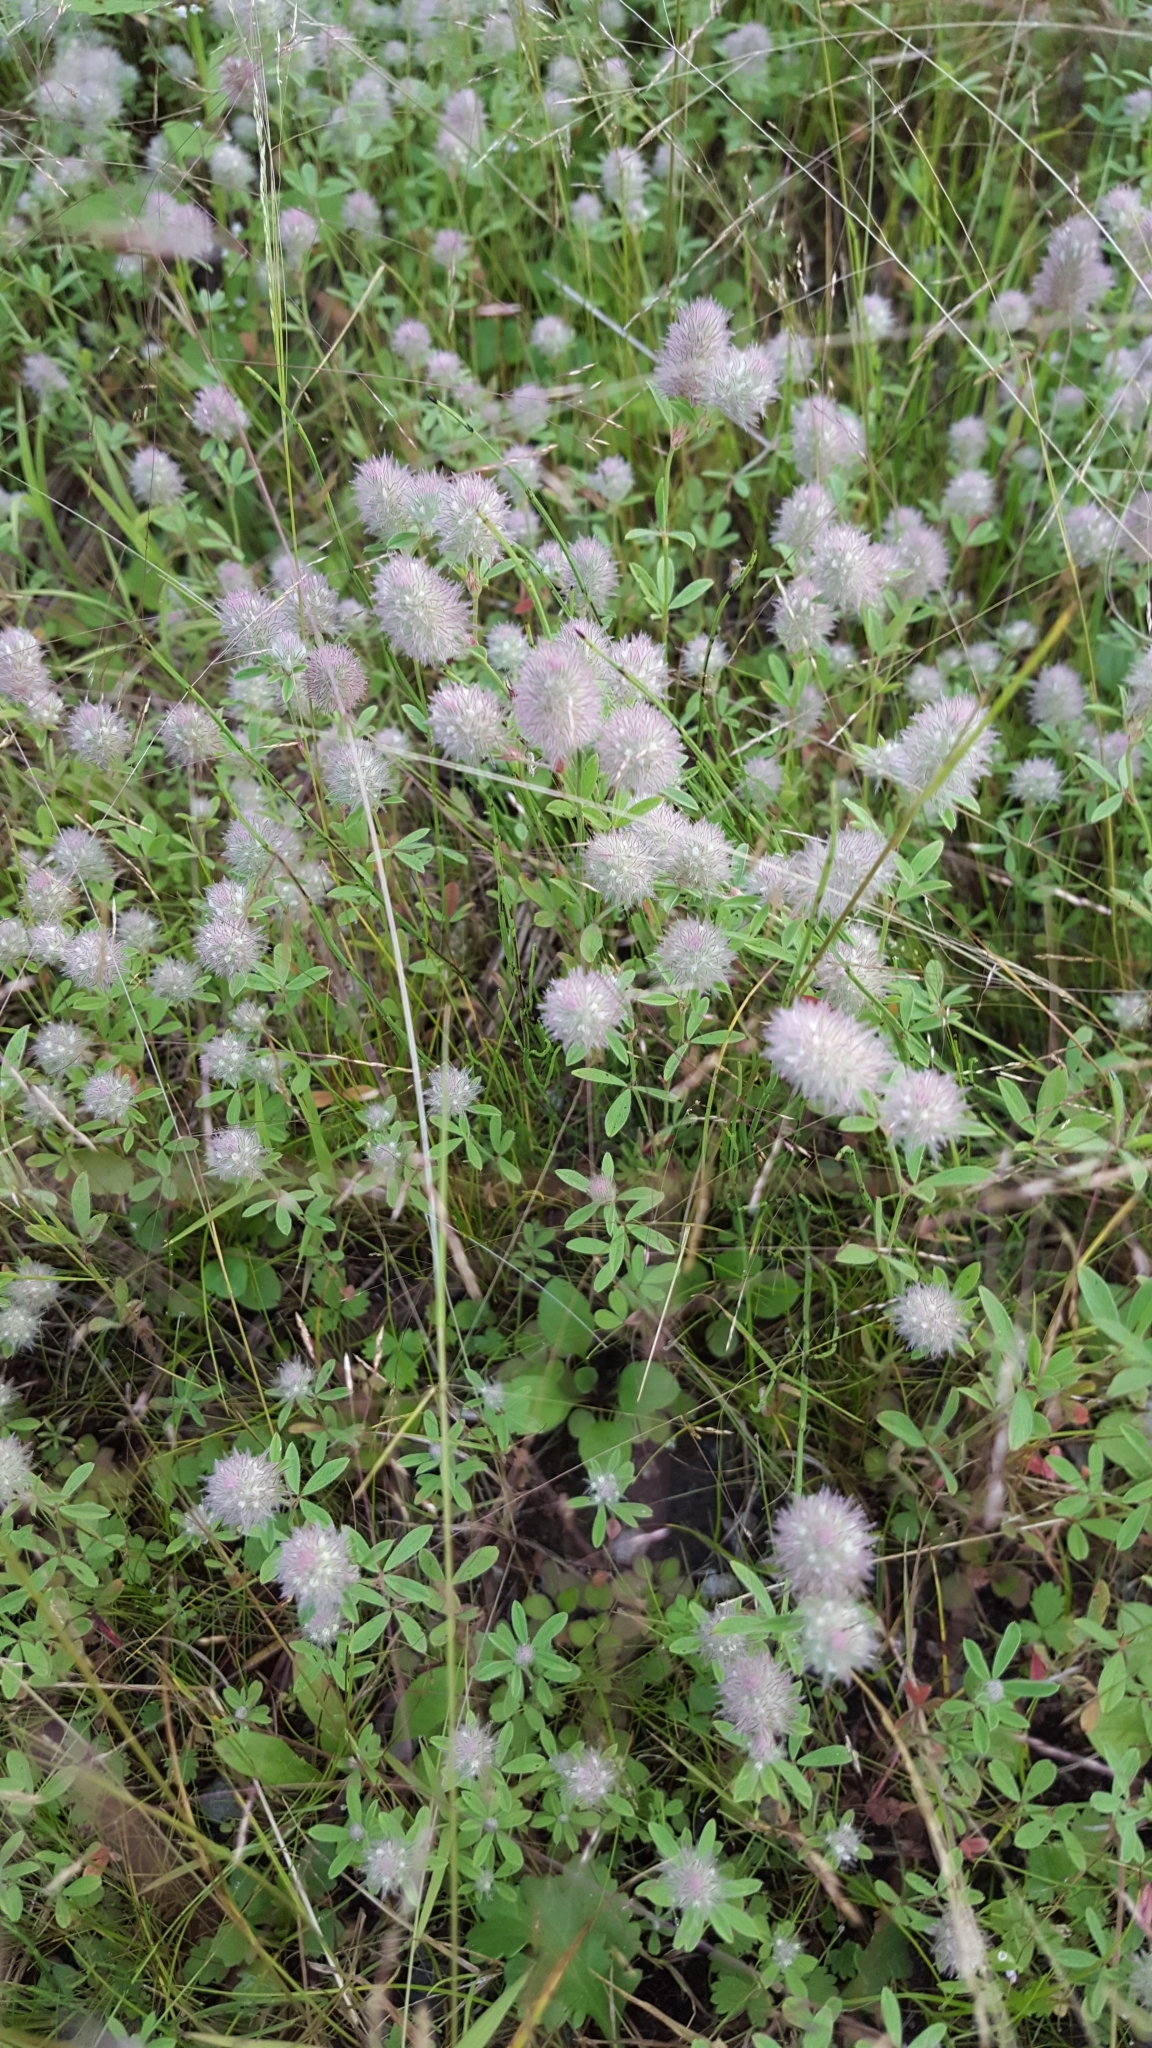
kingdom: Plantae
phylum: Tracheophyta
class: Magnoliopsida
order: Fabales
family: Fabaceae
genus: Trifolium
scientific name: Trifolium arvense
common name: Hare's-foot clover
